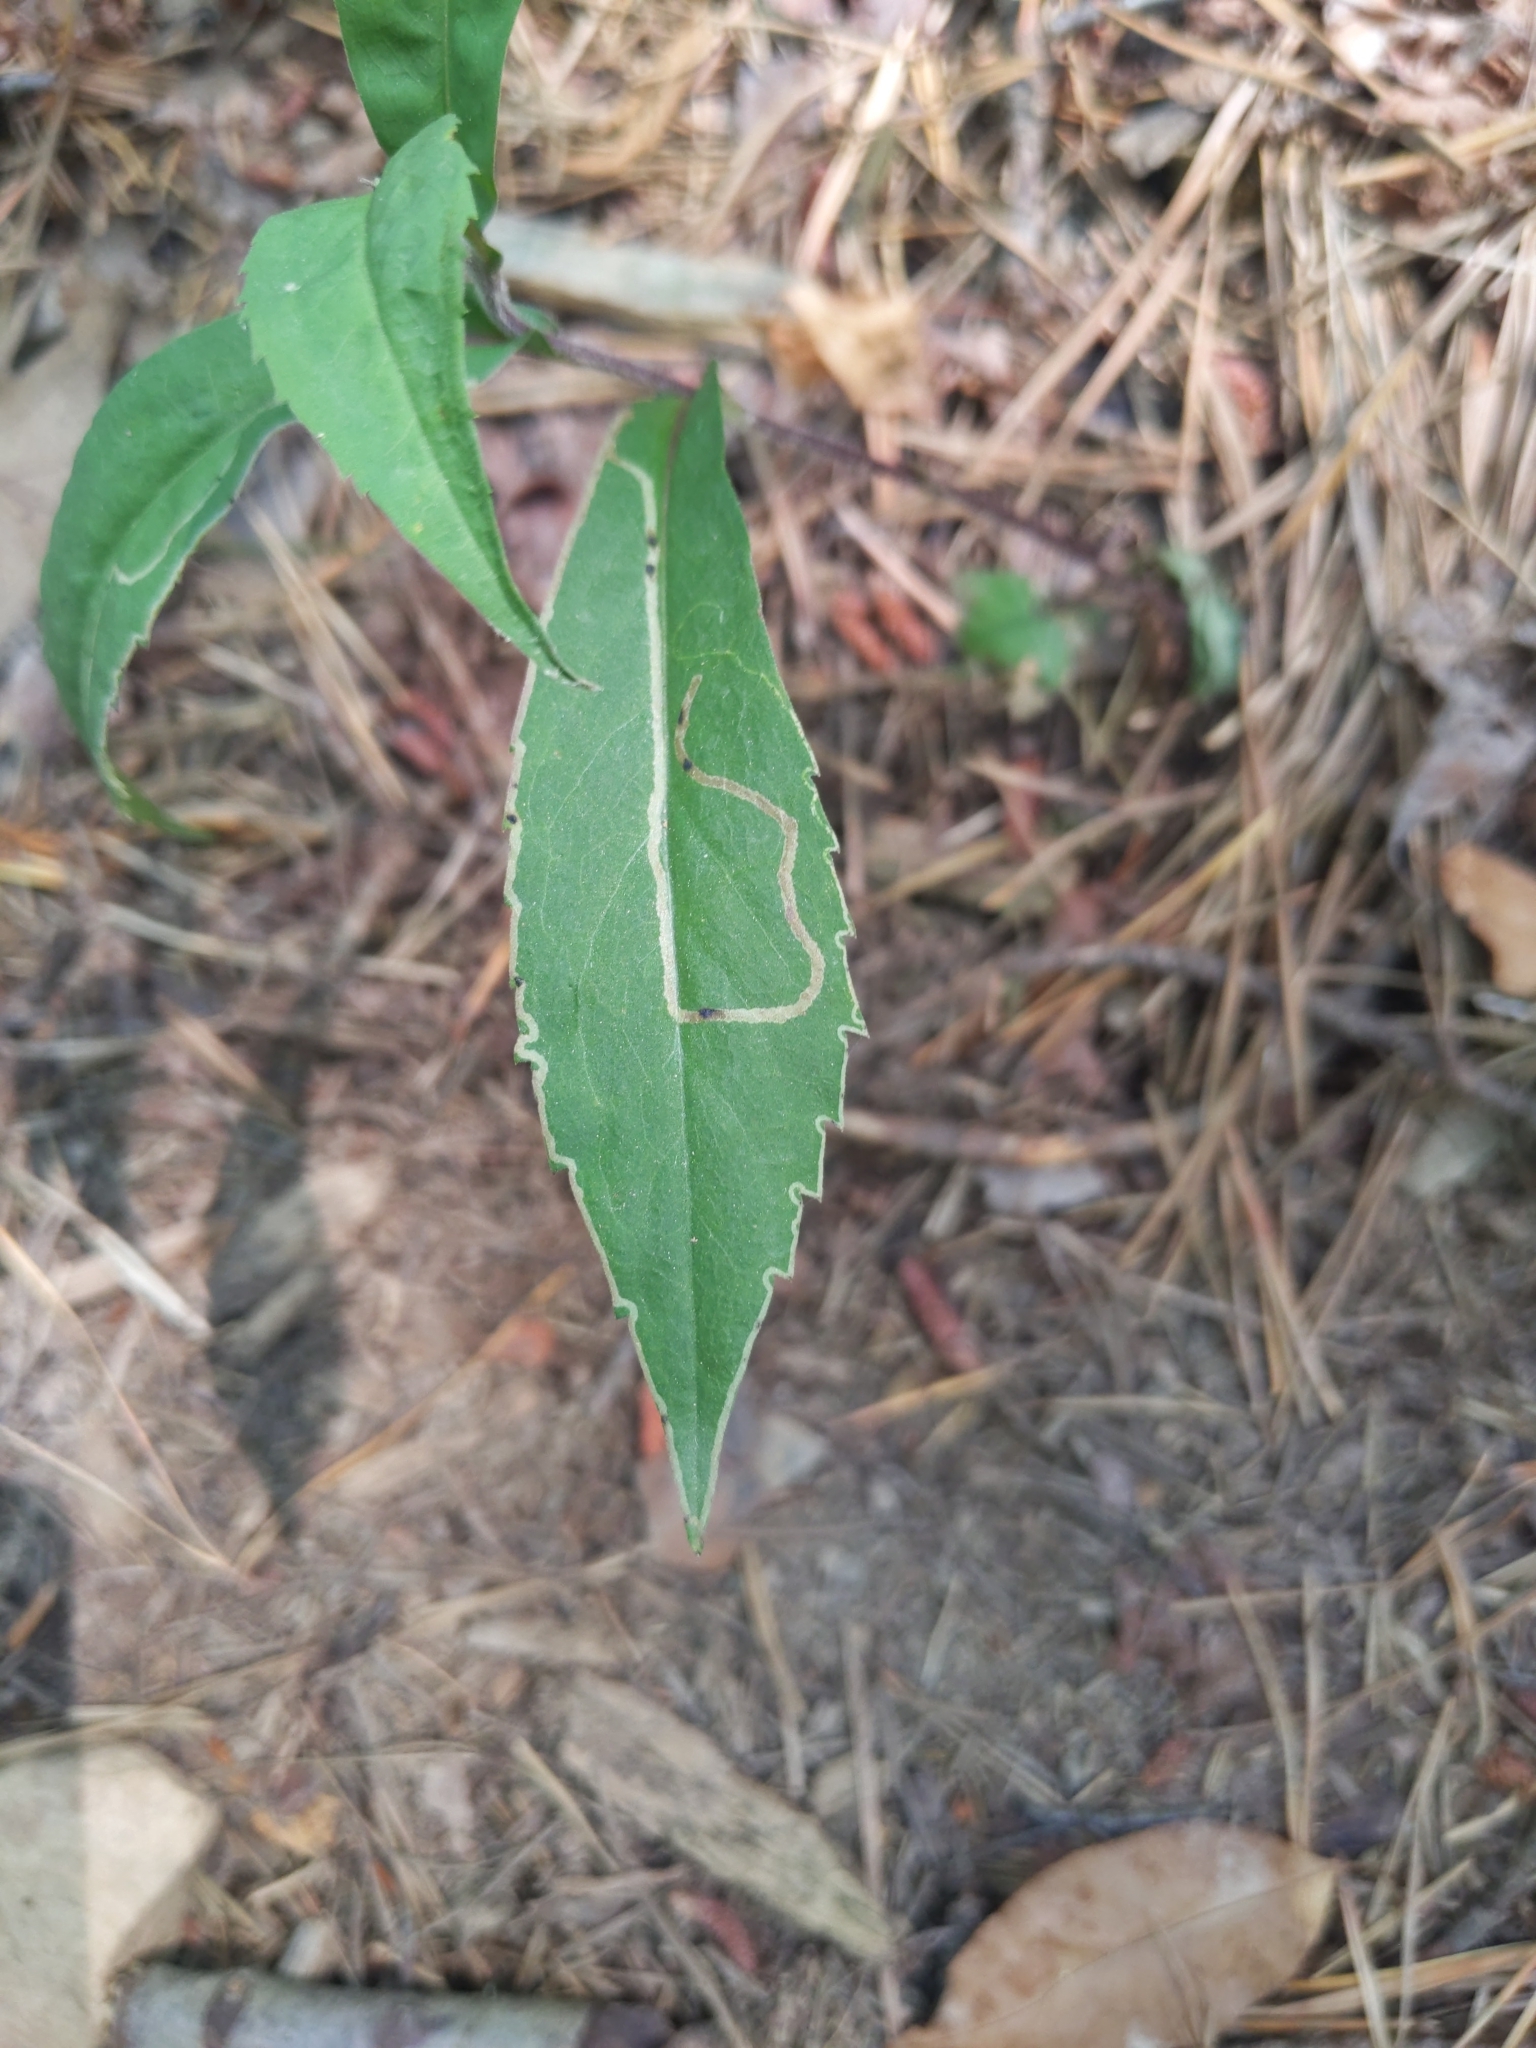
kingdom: Animalia
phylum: Arthropoda
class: Insecta
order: Diptera
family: Agromyzidae
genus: Ophiomyia
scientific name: Ophiomyia parda
